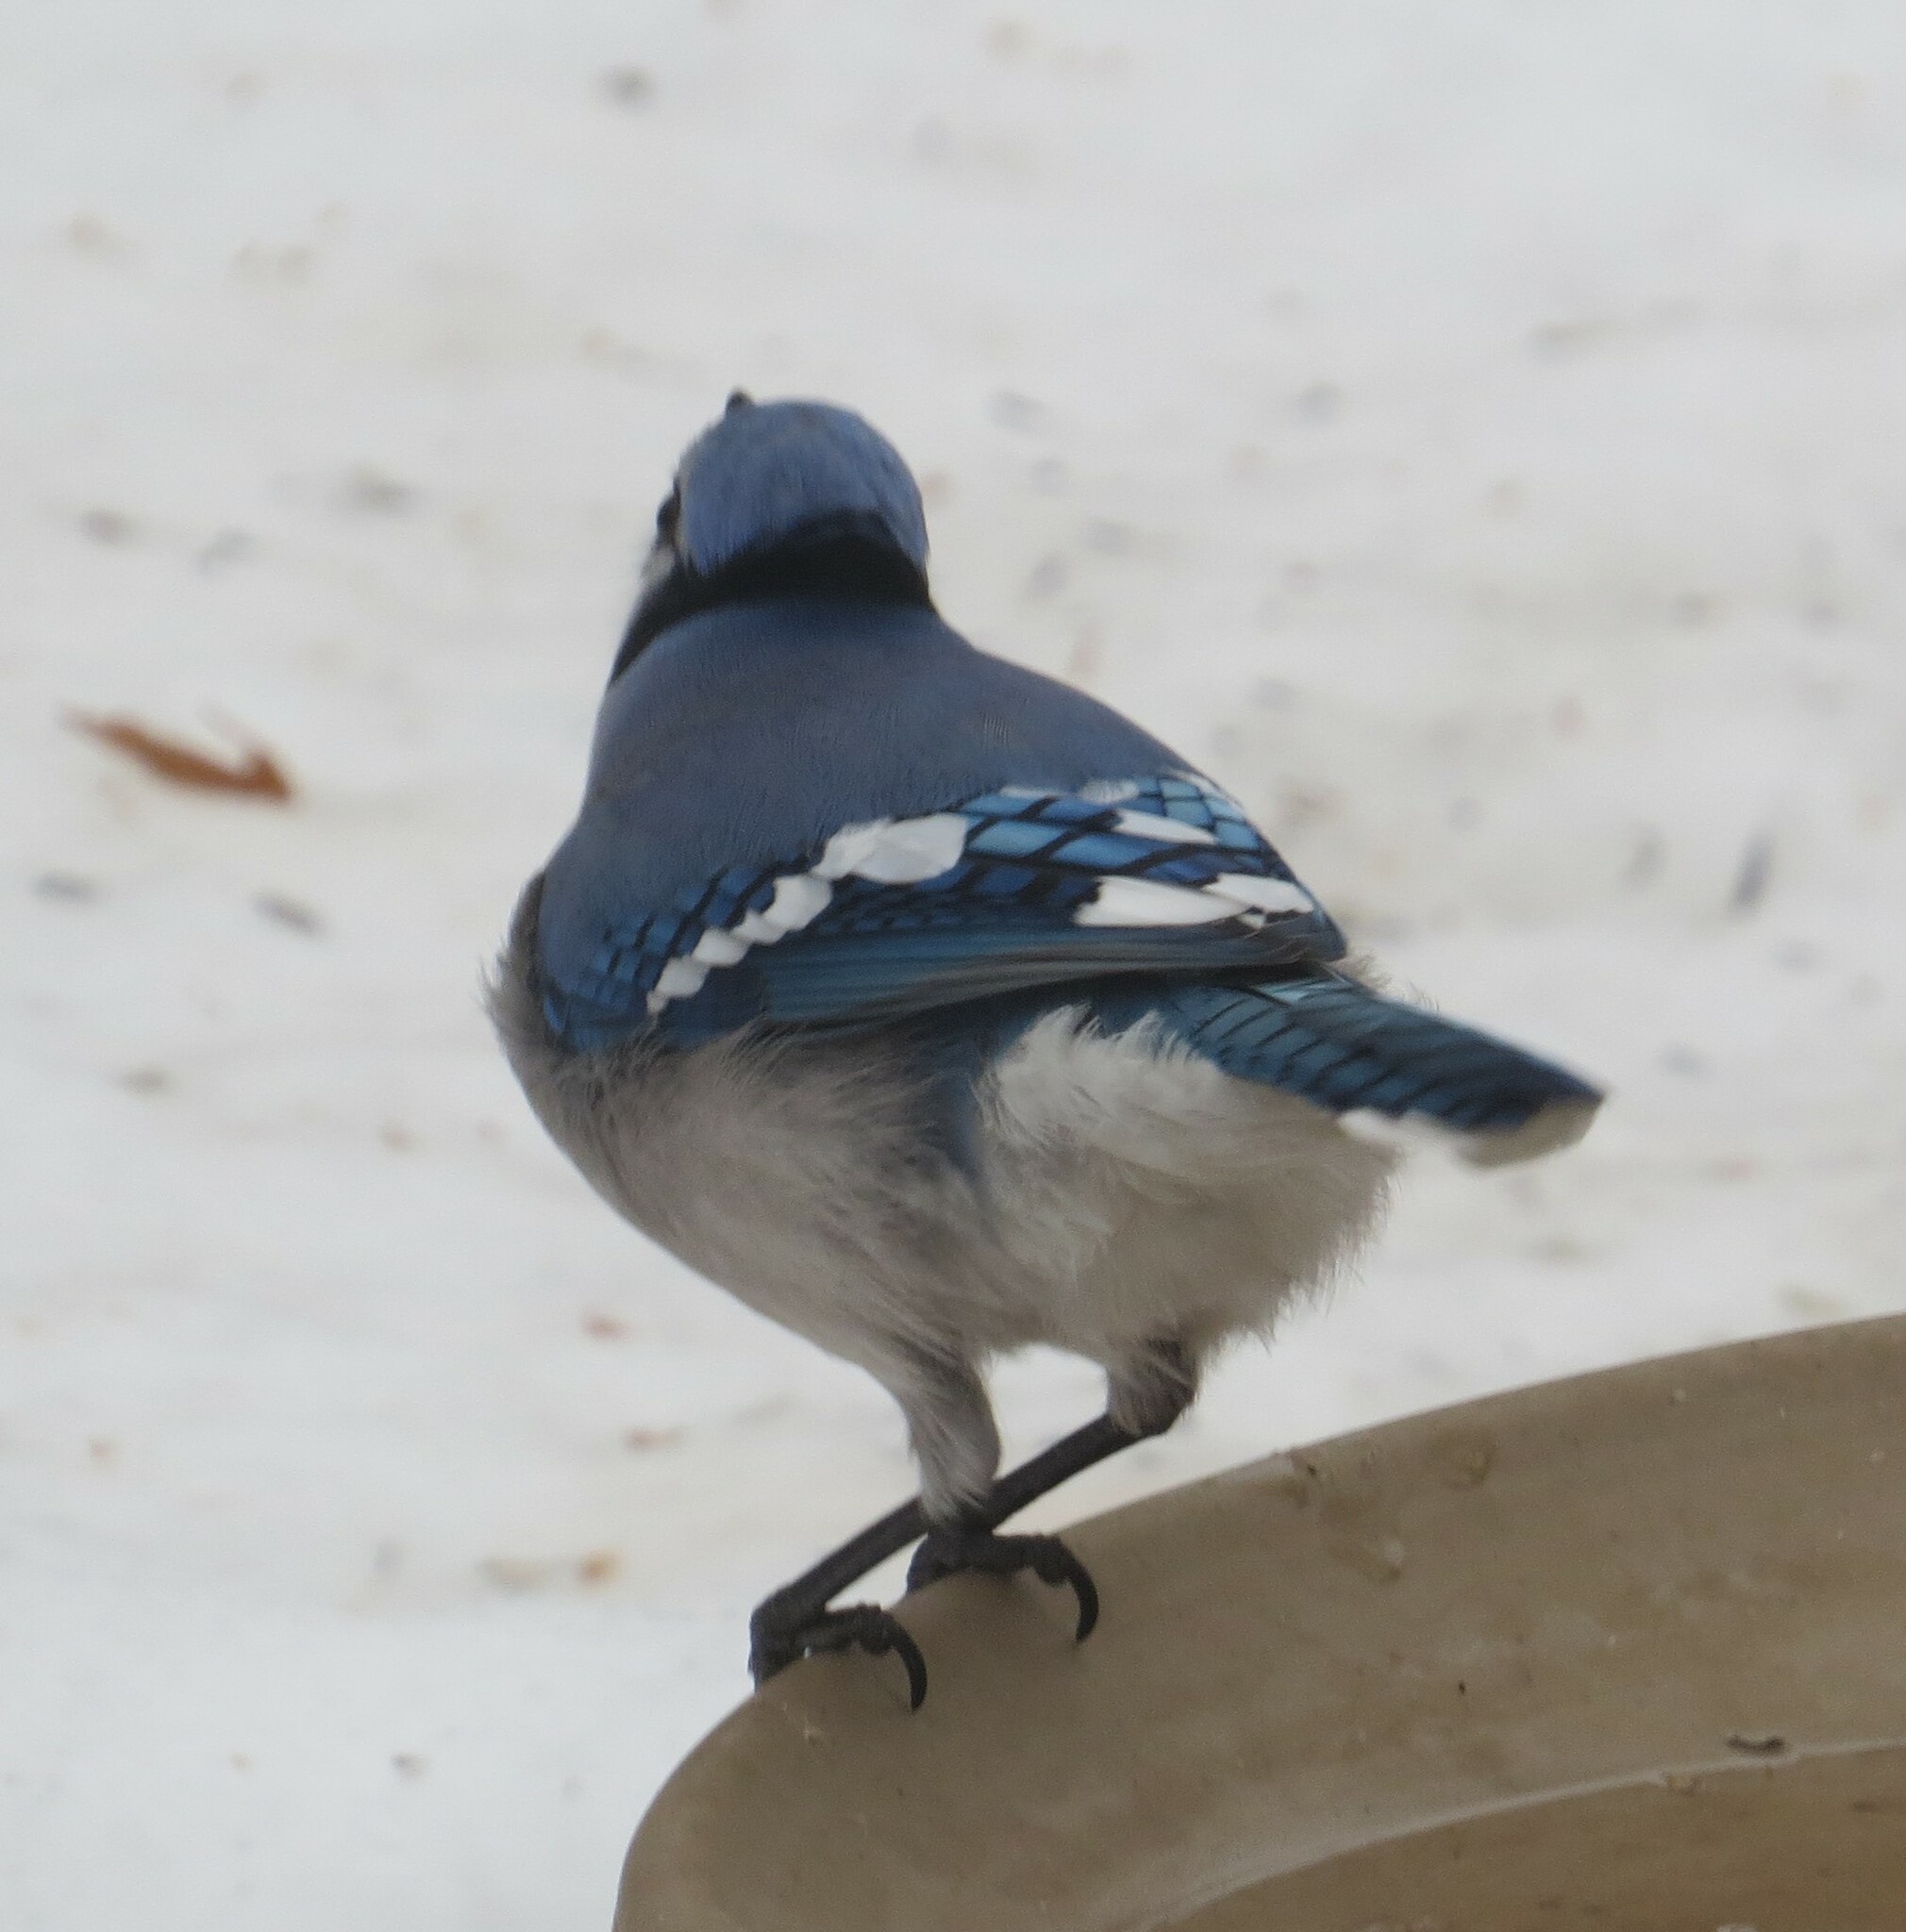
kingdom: Animalia
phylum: Chordata
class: Aves
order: Passeriformes
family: Corvidae
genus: Cyanocitta
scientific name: Cyanocitta cristata
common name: Blue jay
